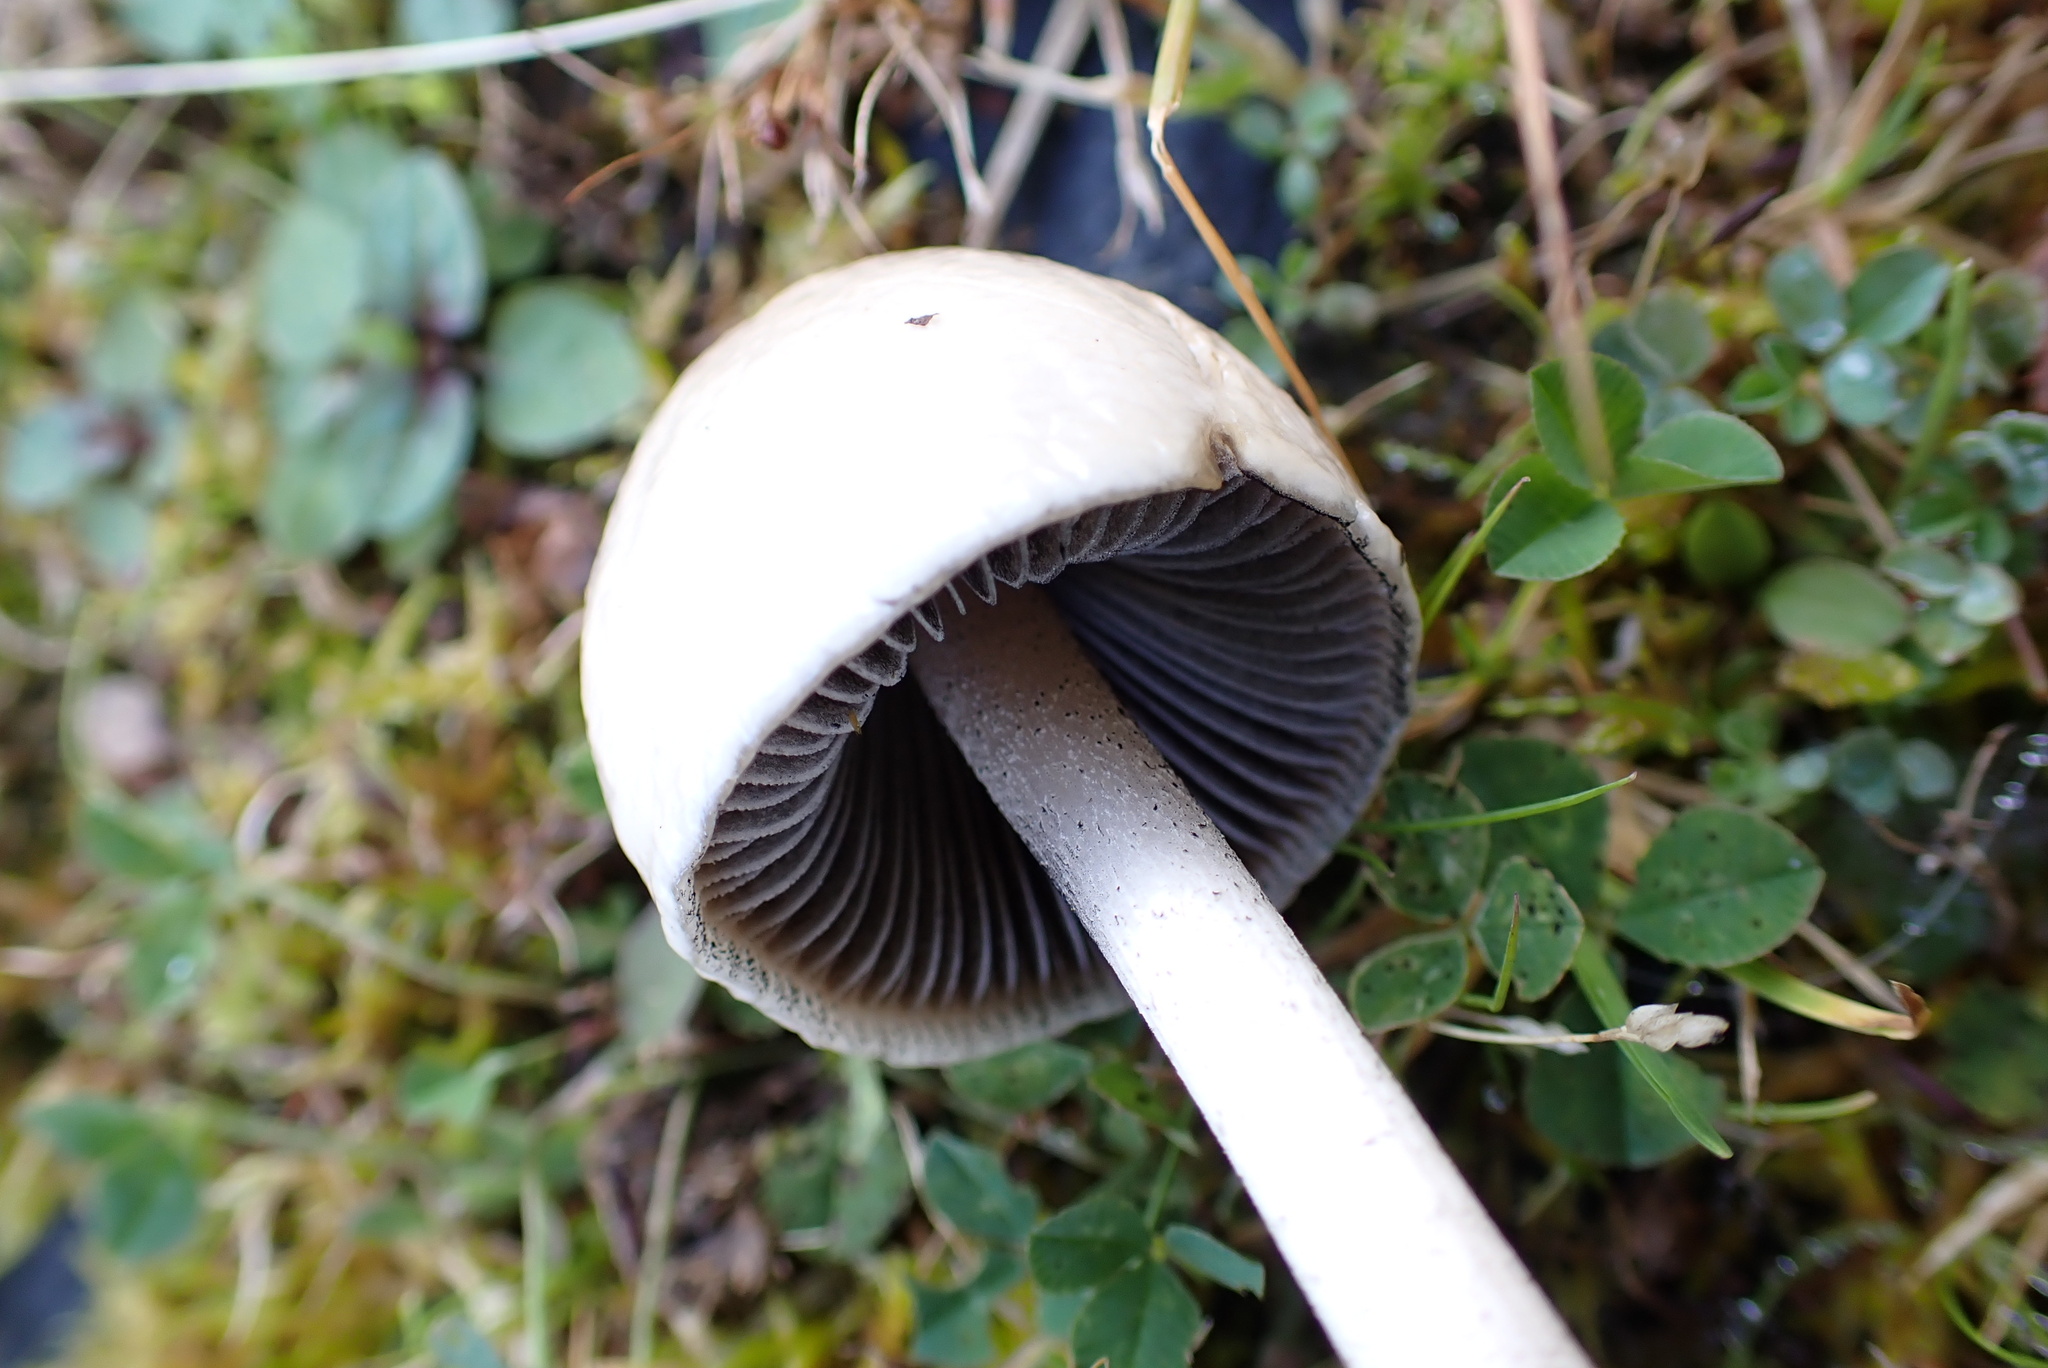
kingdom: Fungi
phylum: Basidiomycota
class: Agaricomycetes
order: Agaricales
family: Bolbitiaceae
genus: Panaeolus
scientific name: Panaeolus semiovatus
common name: Shiny mottlegill
